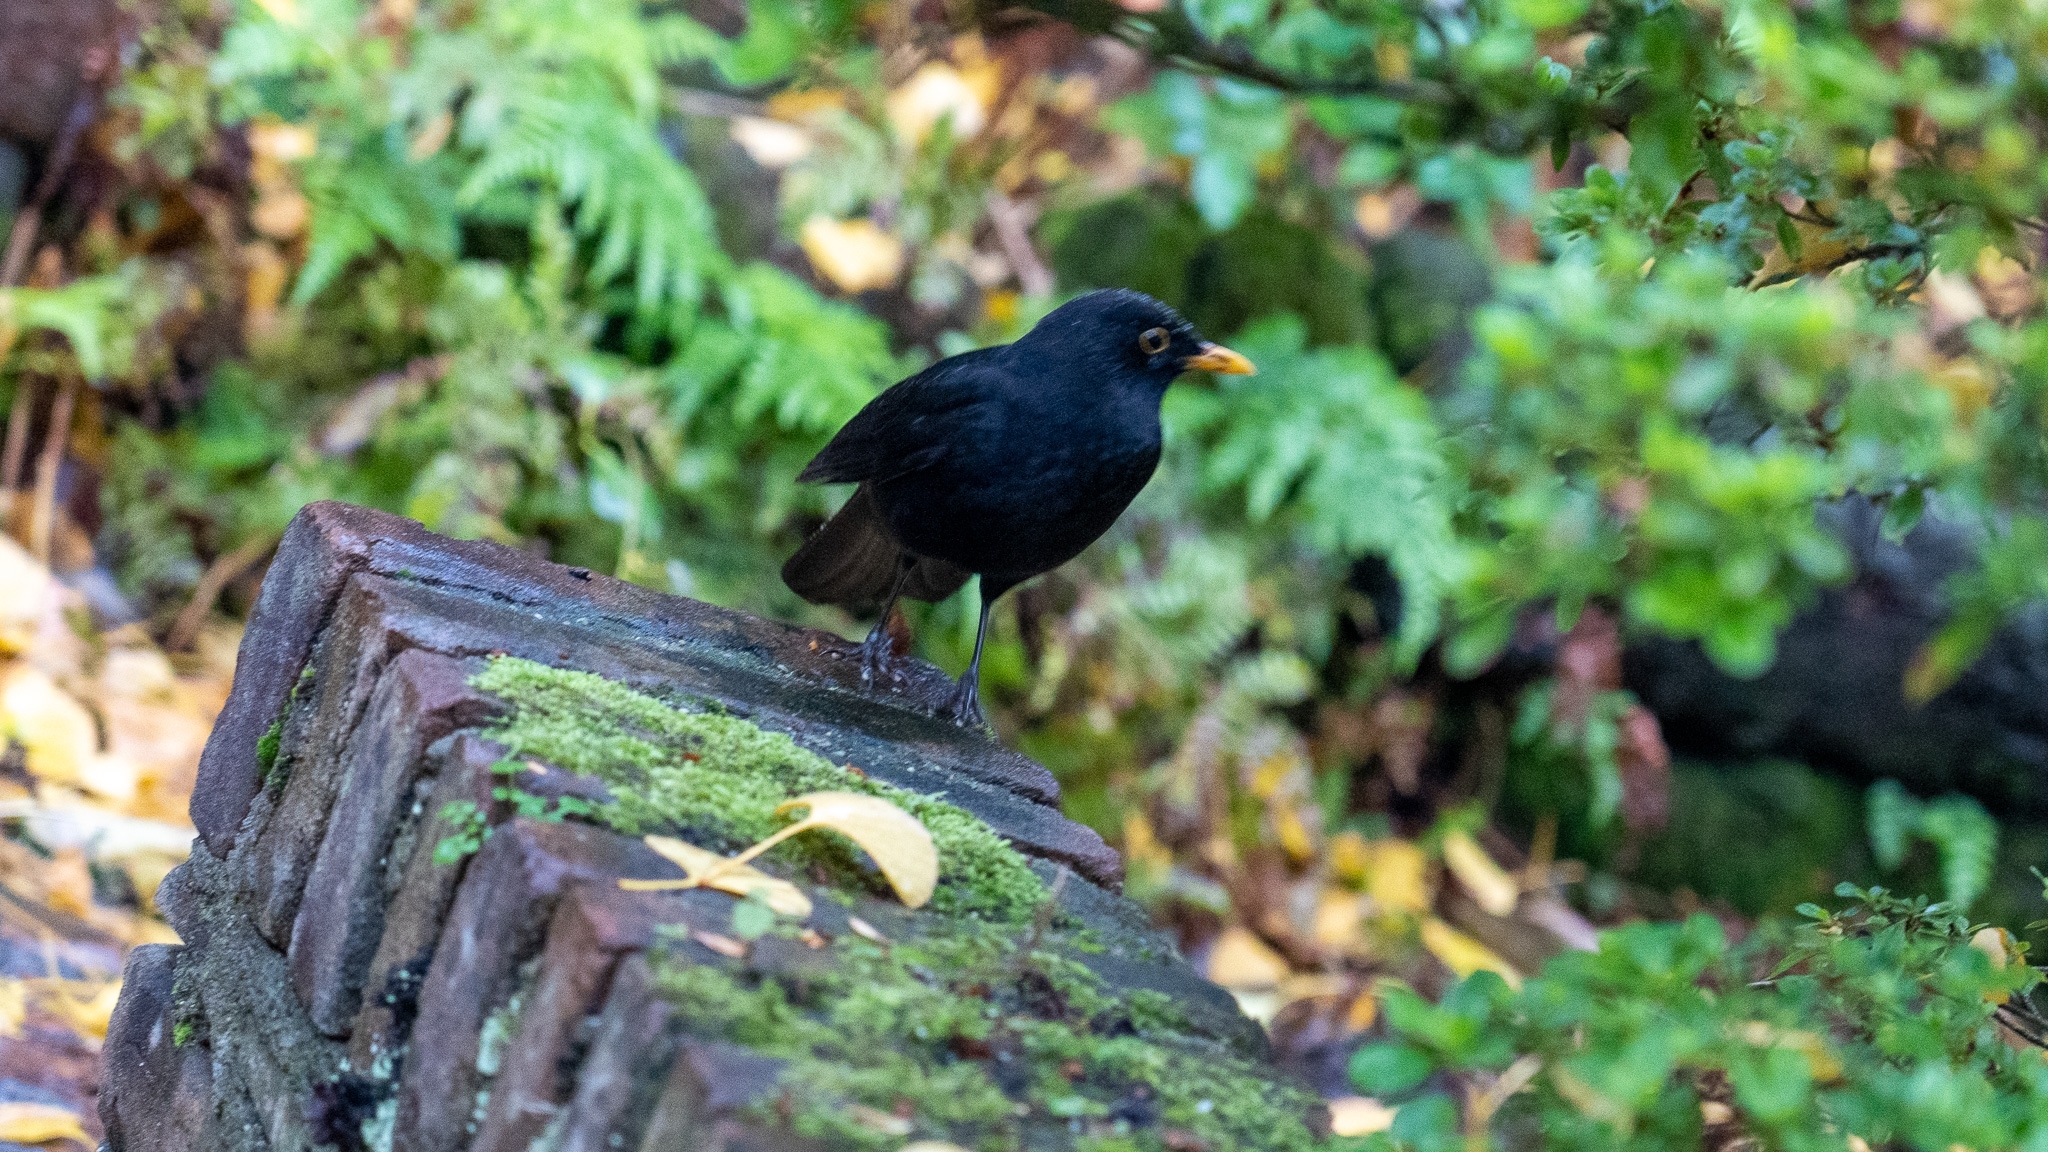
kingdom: Animalia
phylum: Chordata
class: Aves
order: Passeriformes
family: Turdidae
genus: Turdus
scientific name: Turdus merula
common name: Common blackbird
